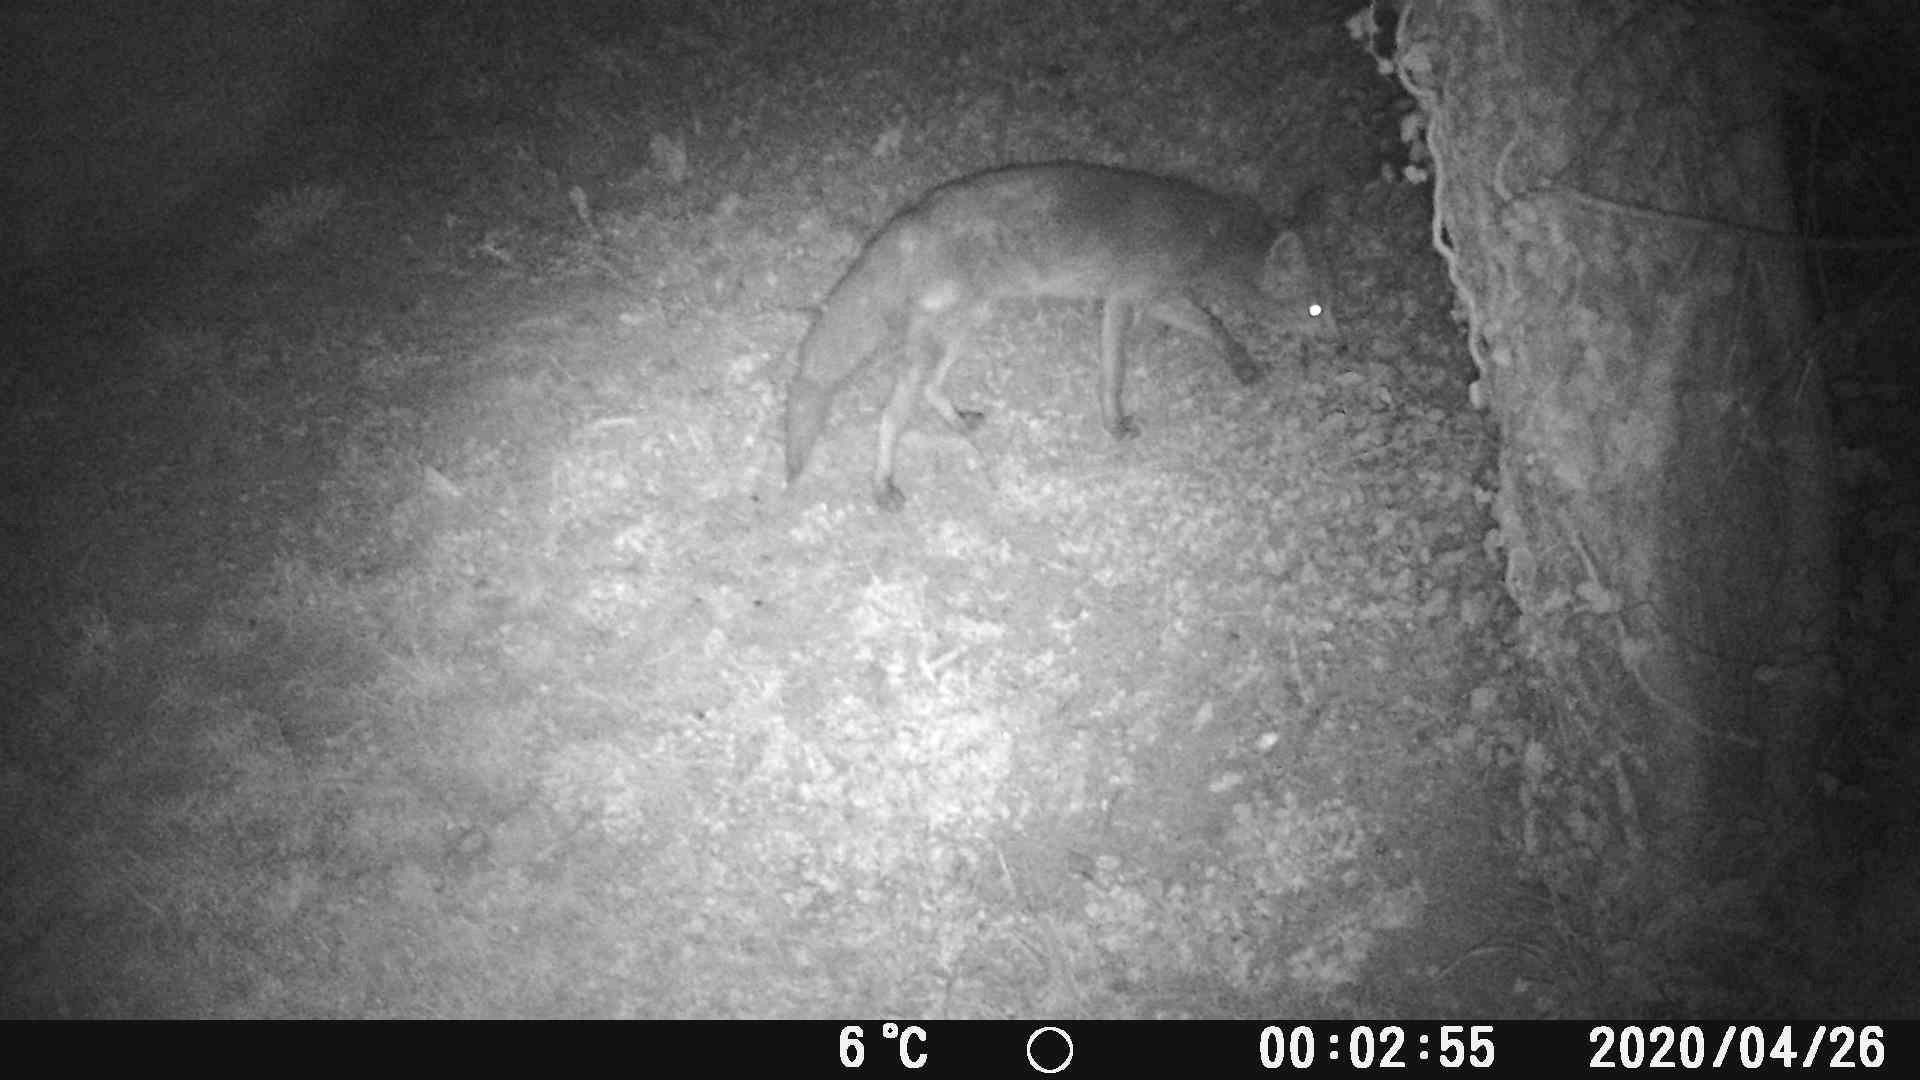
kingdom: Animalia
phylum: Chordata
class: Mammalia
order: Carnivora
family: Canidae
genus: Vulpes
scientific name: Vulpes vulpes
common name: Red fox
